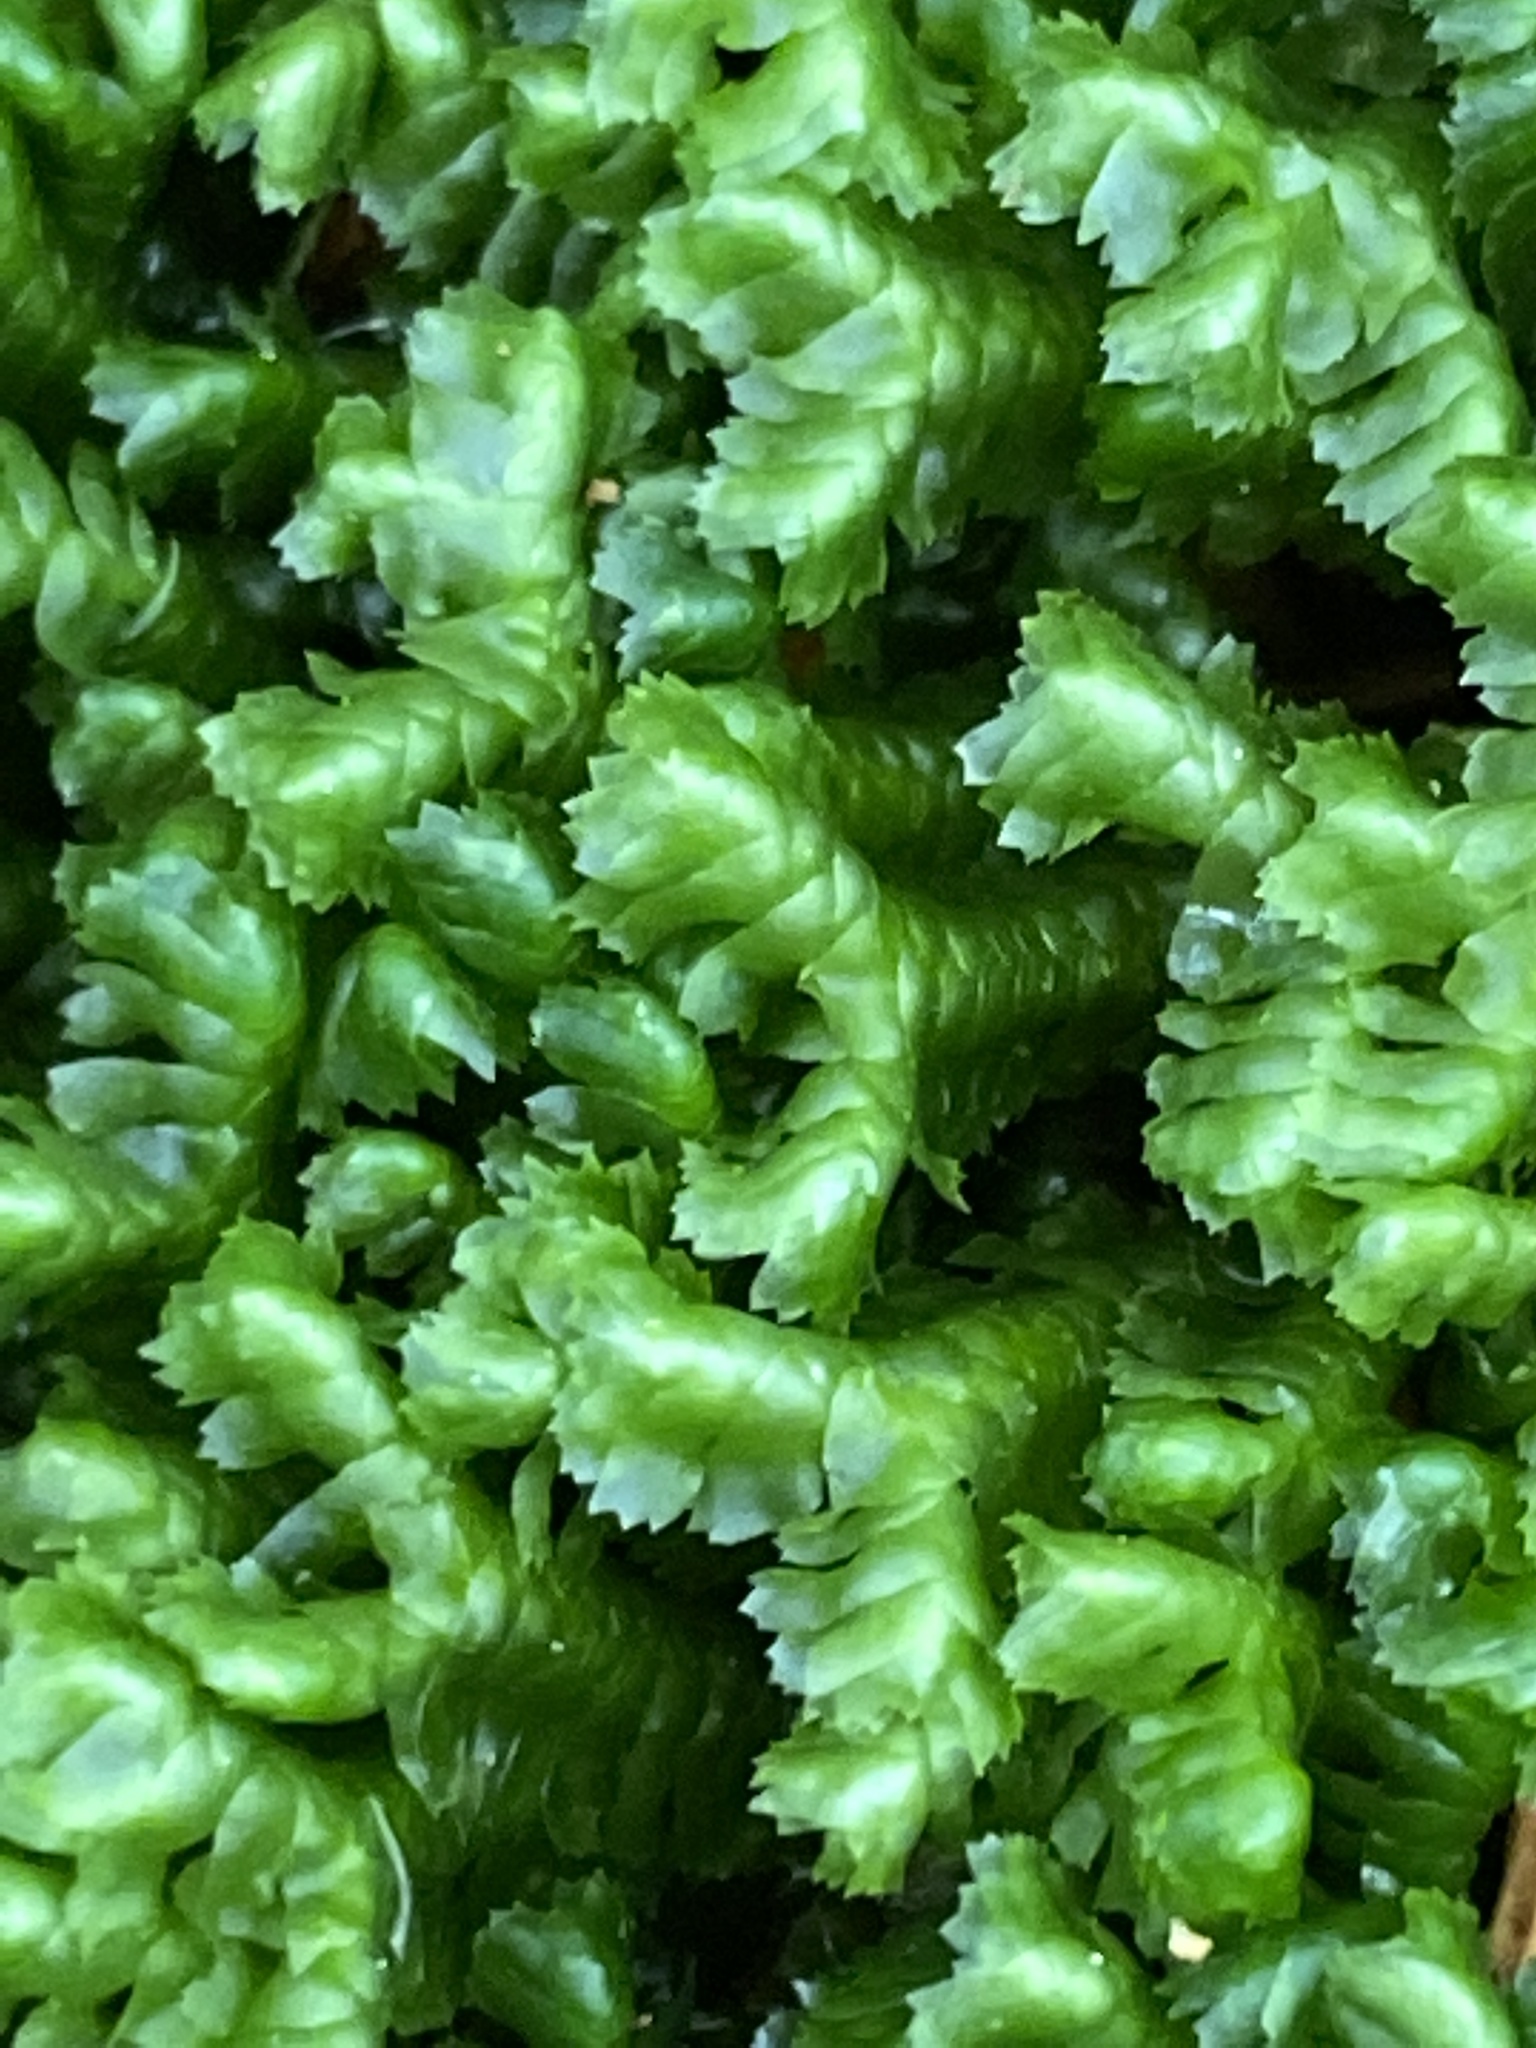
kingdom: Plantae
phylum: Marchantiophyta
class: Jungermanniopsida
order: Jungermanniales
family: Lepidoziaceae
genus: Bazzania
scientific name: Bazzania trilobata
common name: Three-lobed whipwort
